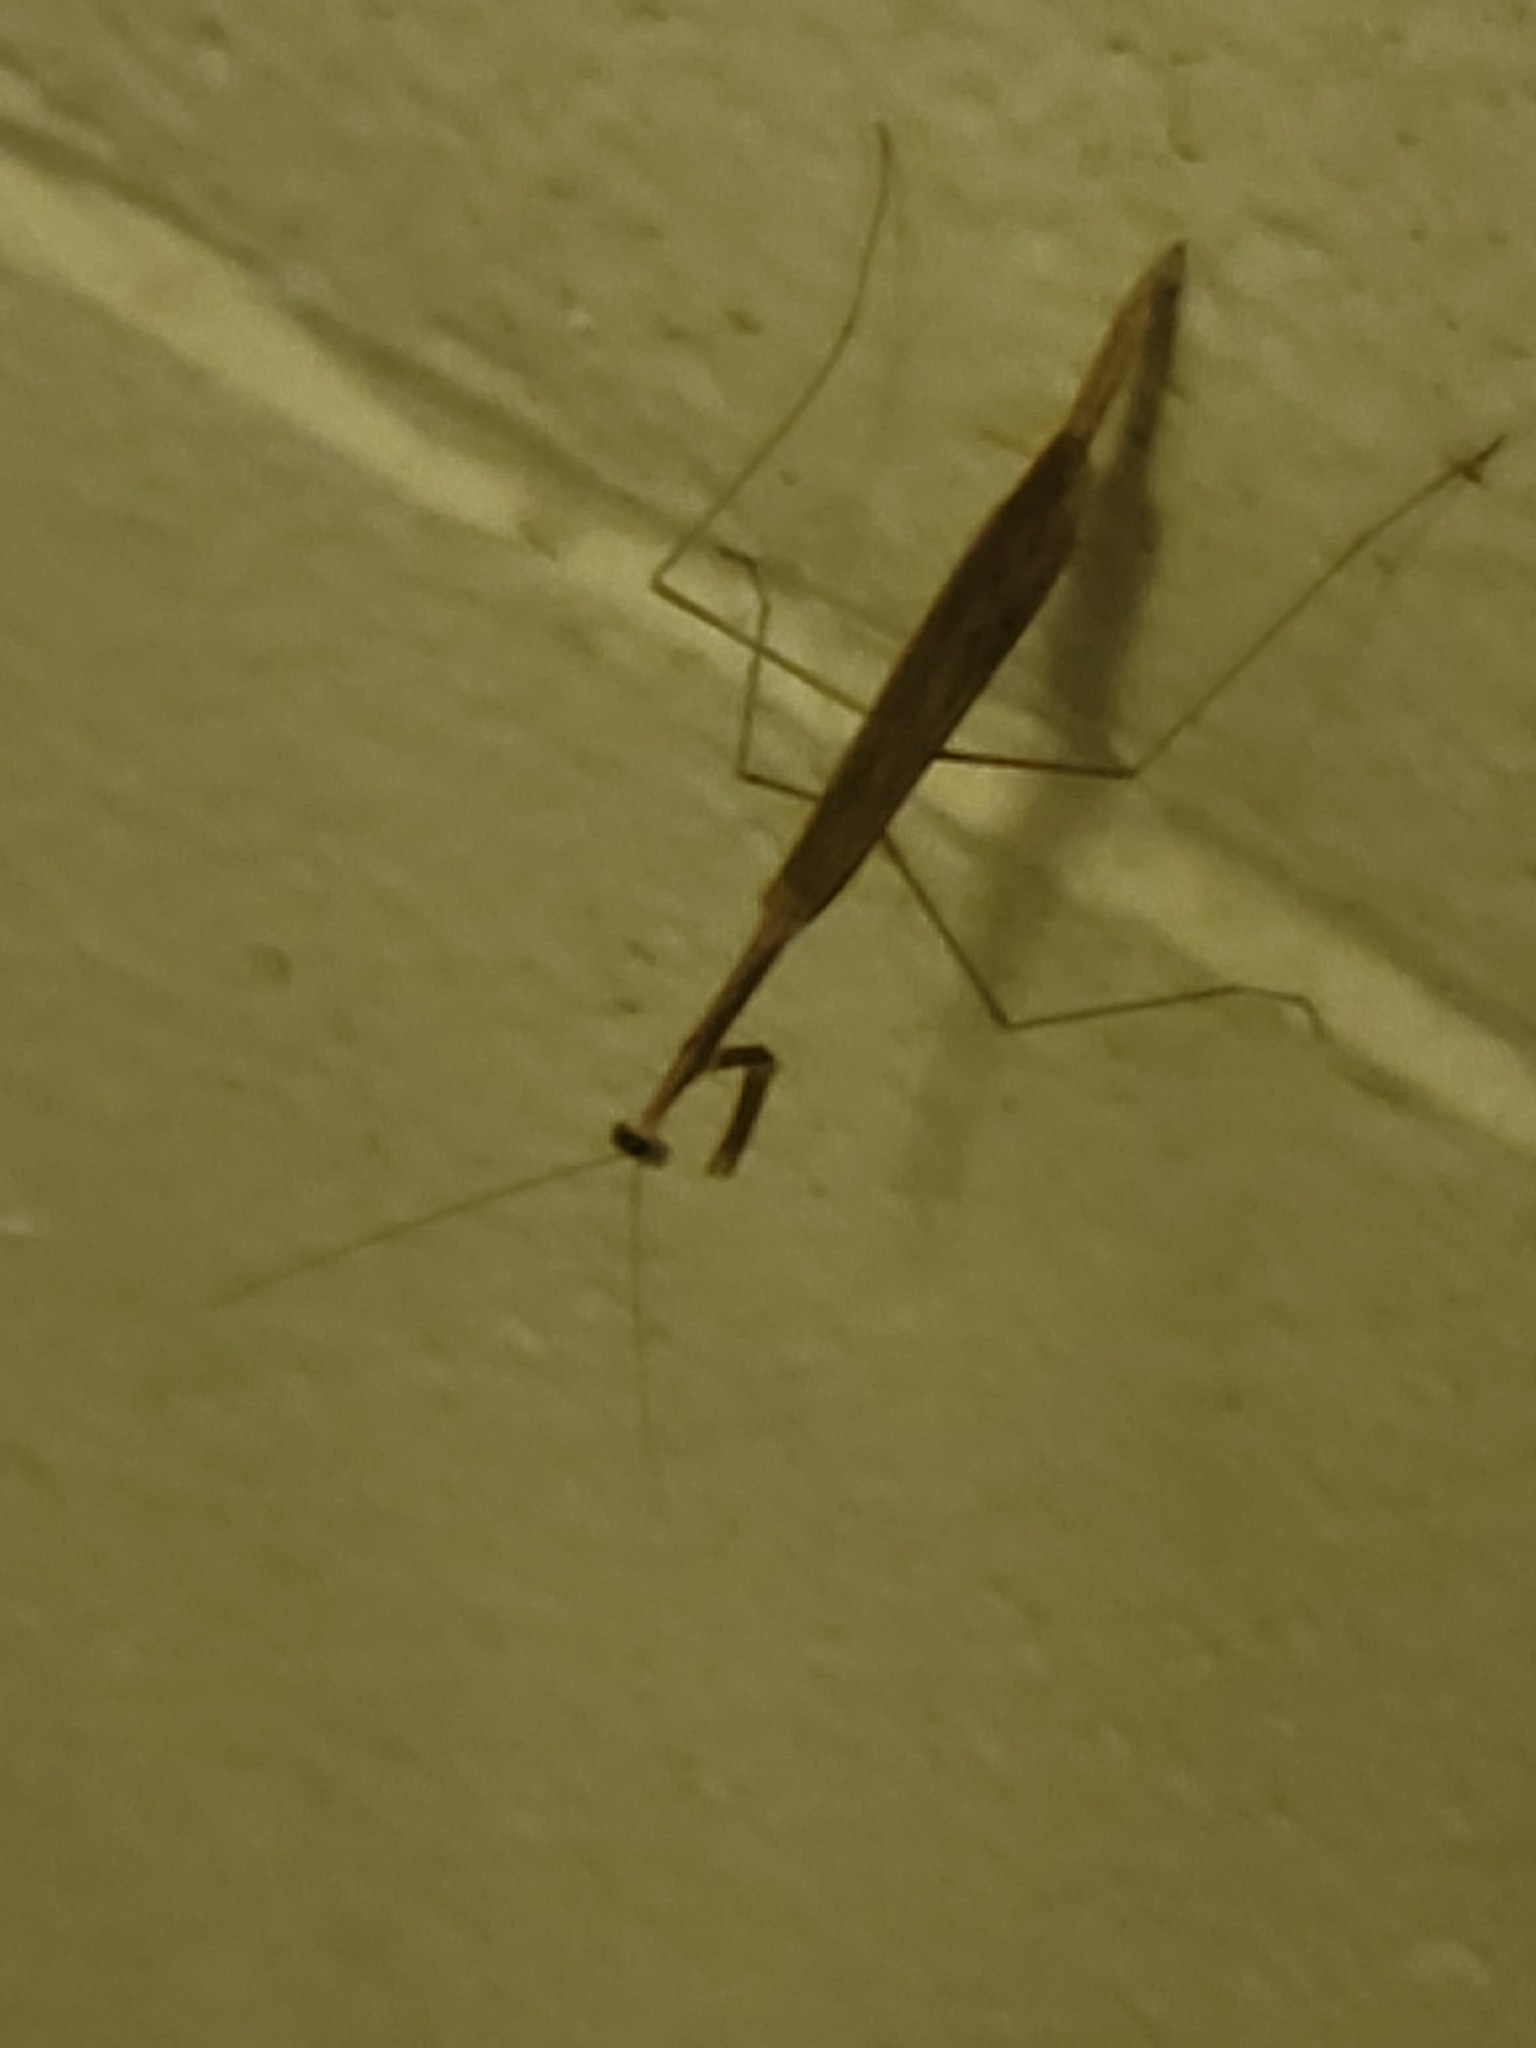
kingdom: Animalia
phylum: Arthropoda
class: Insecta
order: Mantodea
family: Thespidae
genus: Bistanta
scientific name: Bistanta mexicana
